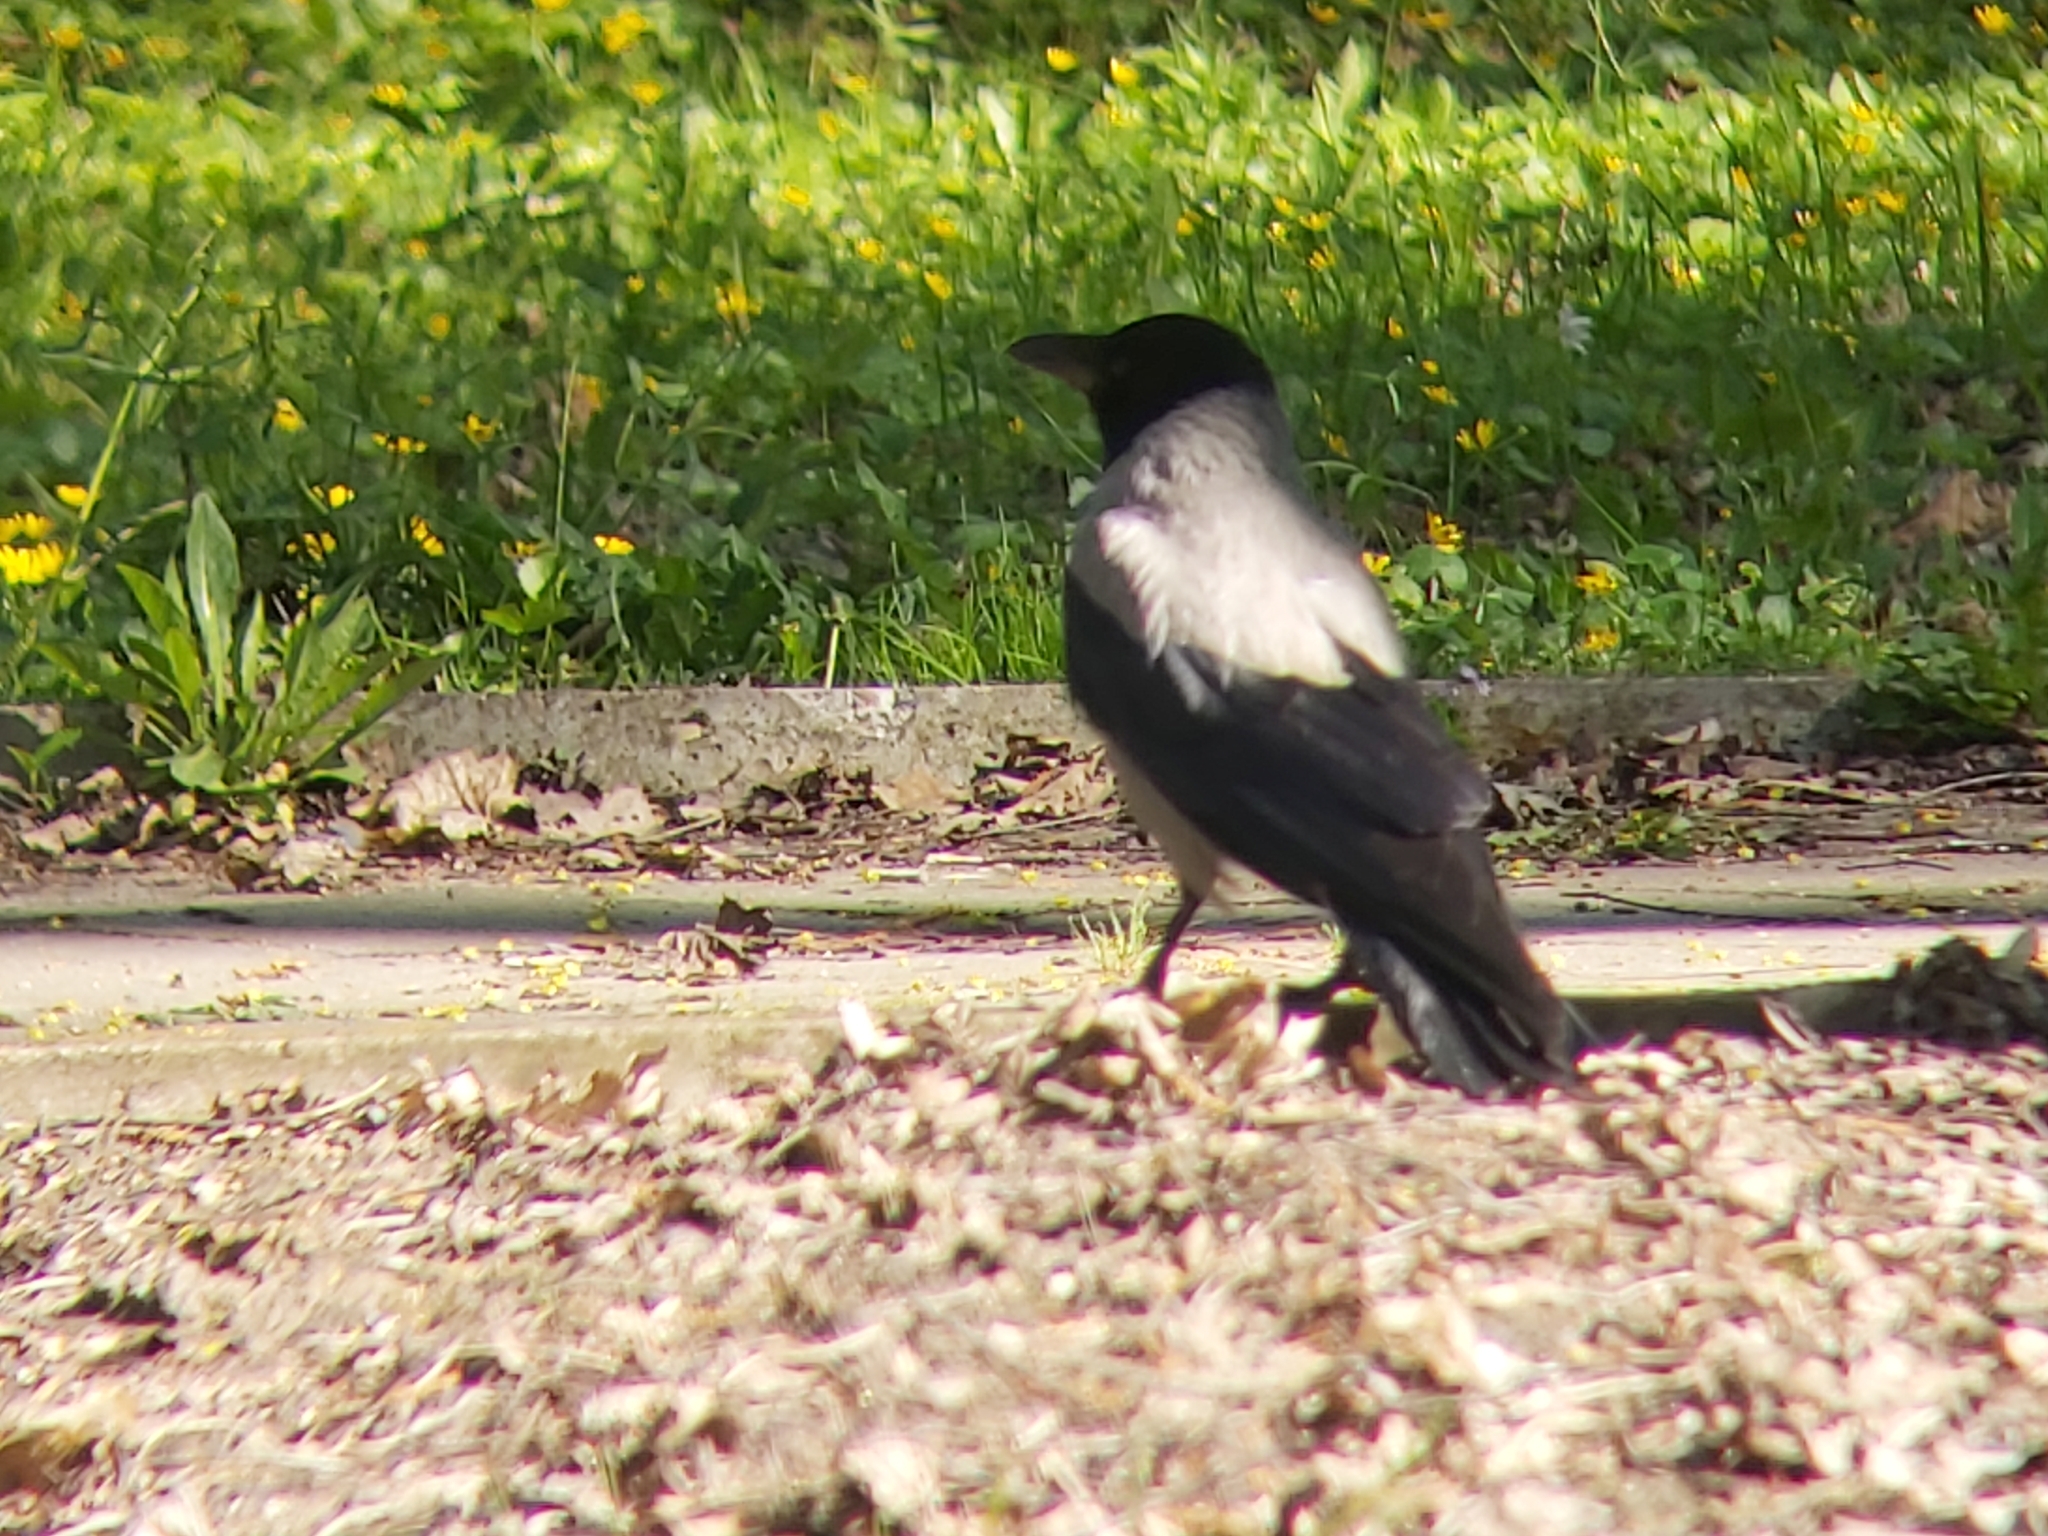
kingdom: Animalia
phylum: Chordata
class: Aves
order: Passeriformes
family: Corvidae
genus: Corvus
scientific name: Corvus cornix
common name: Hooded crow
